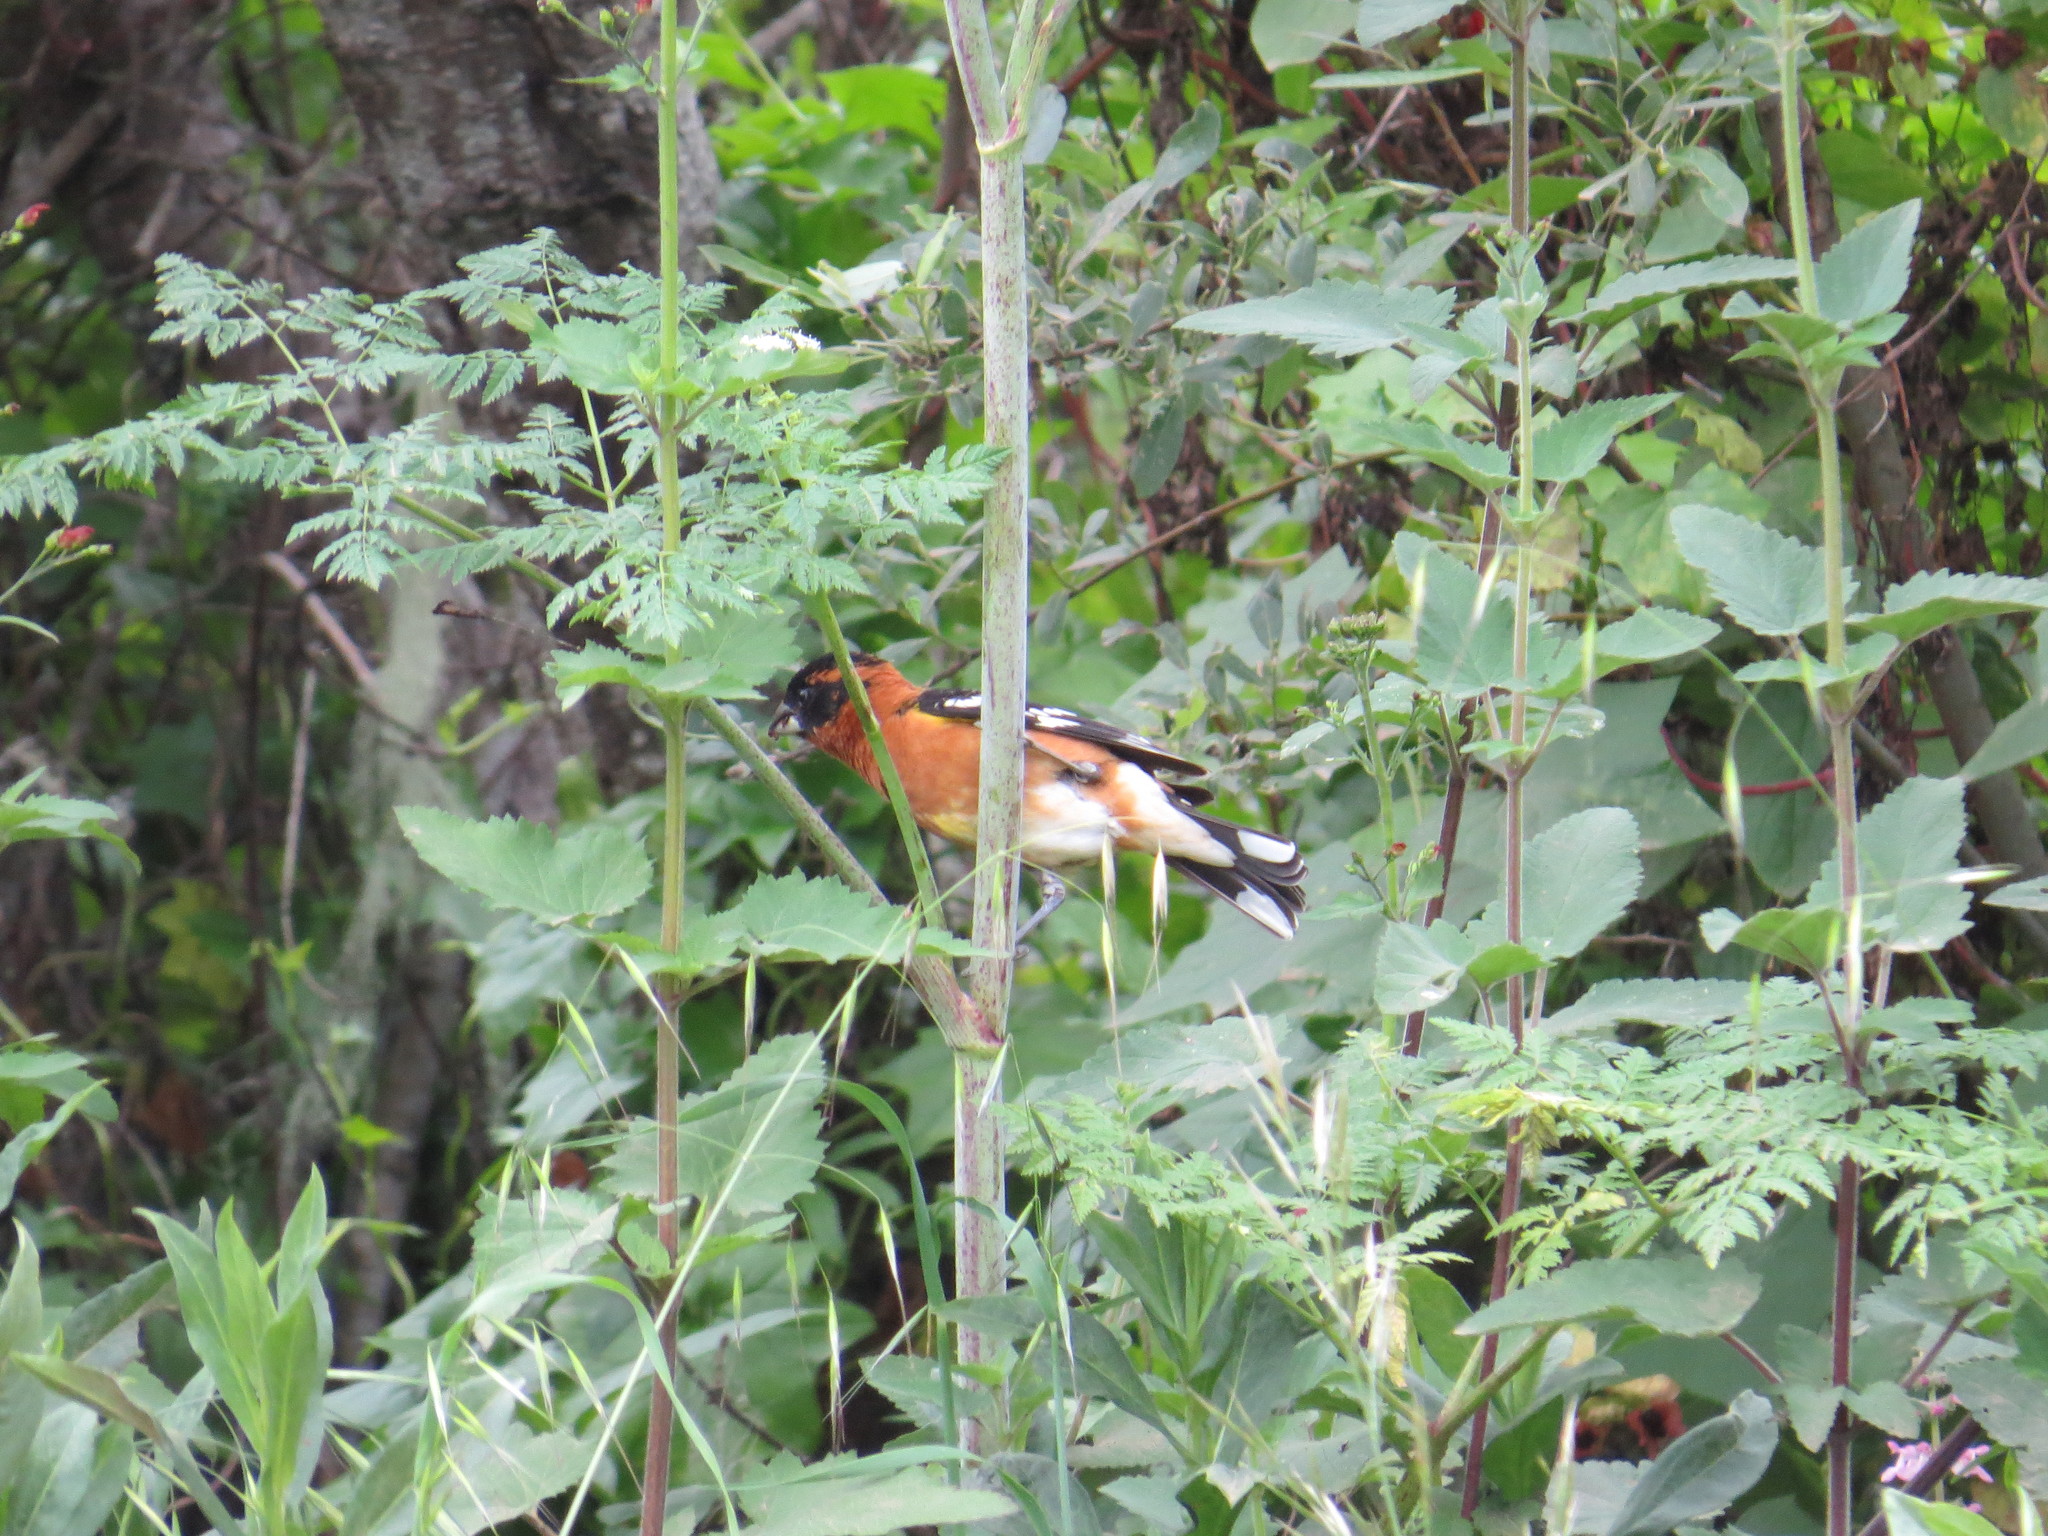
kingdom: Animalia
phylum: Chordata
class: Aves
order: Passeriformes
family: Cardinalidae
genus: Pheucticus
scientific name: Pheucticus melanocephalus
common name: Black-headed grosbeak
